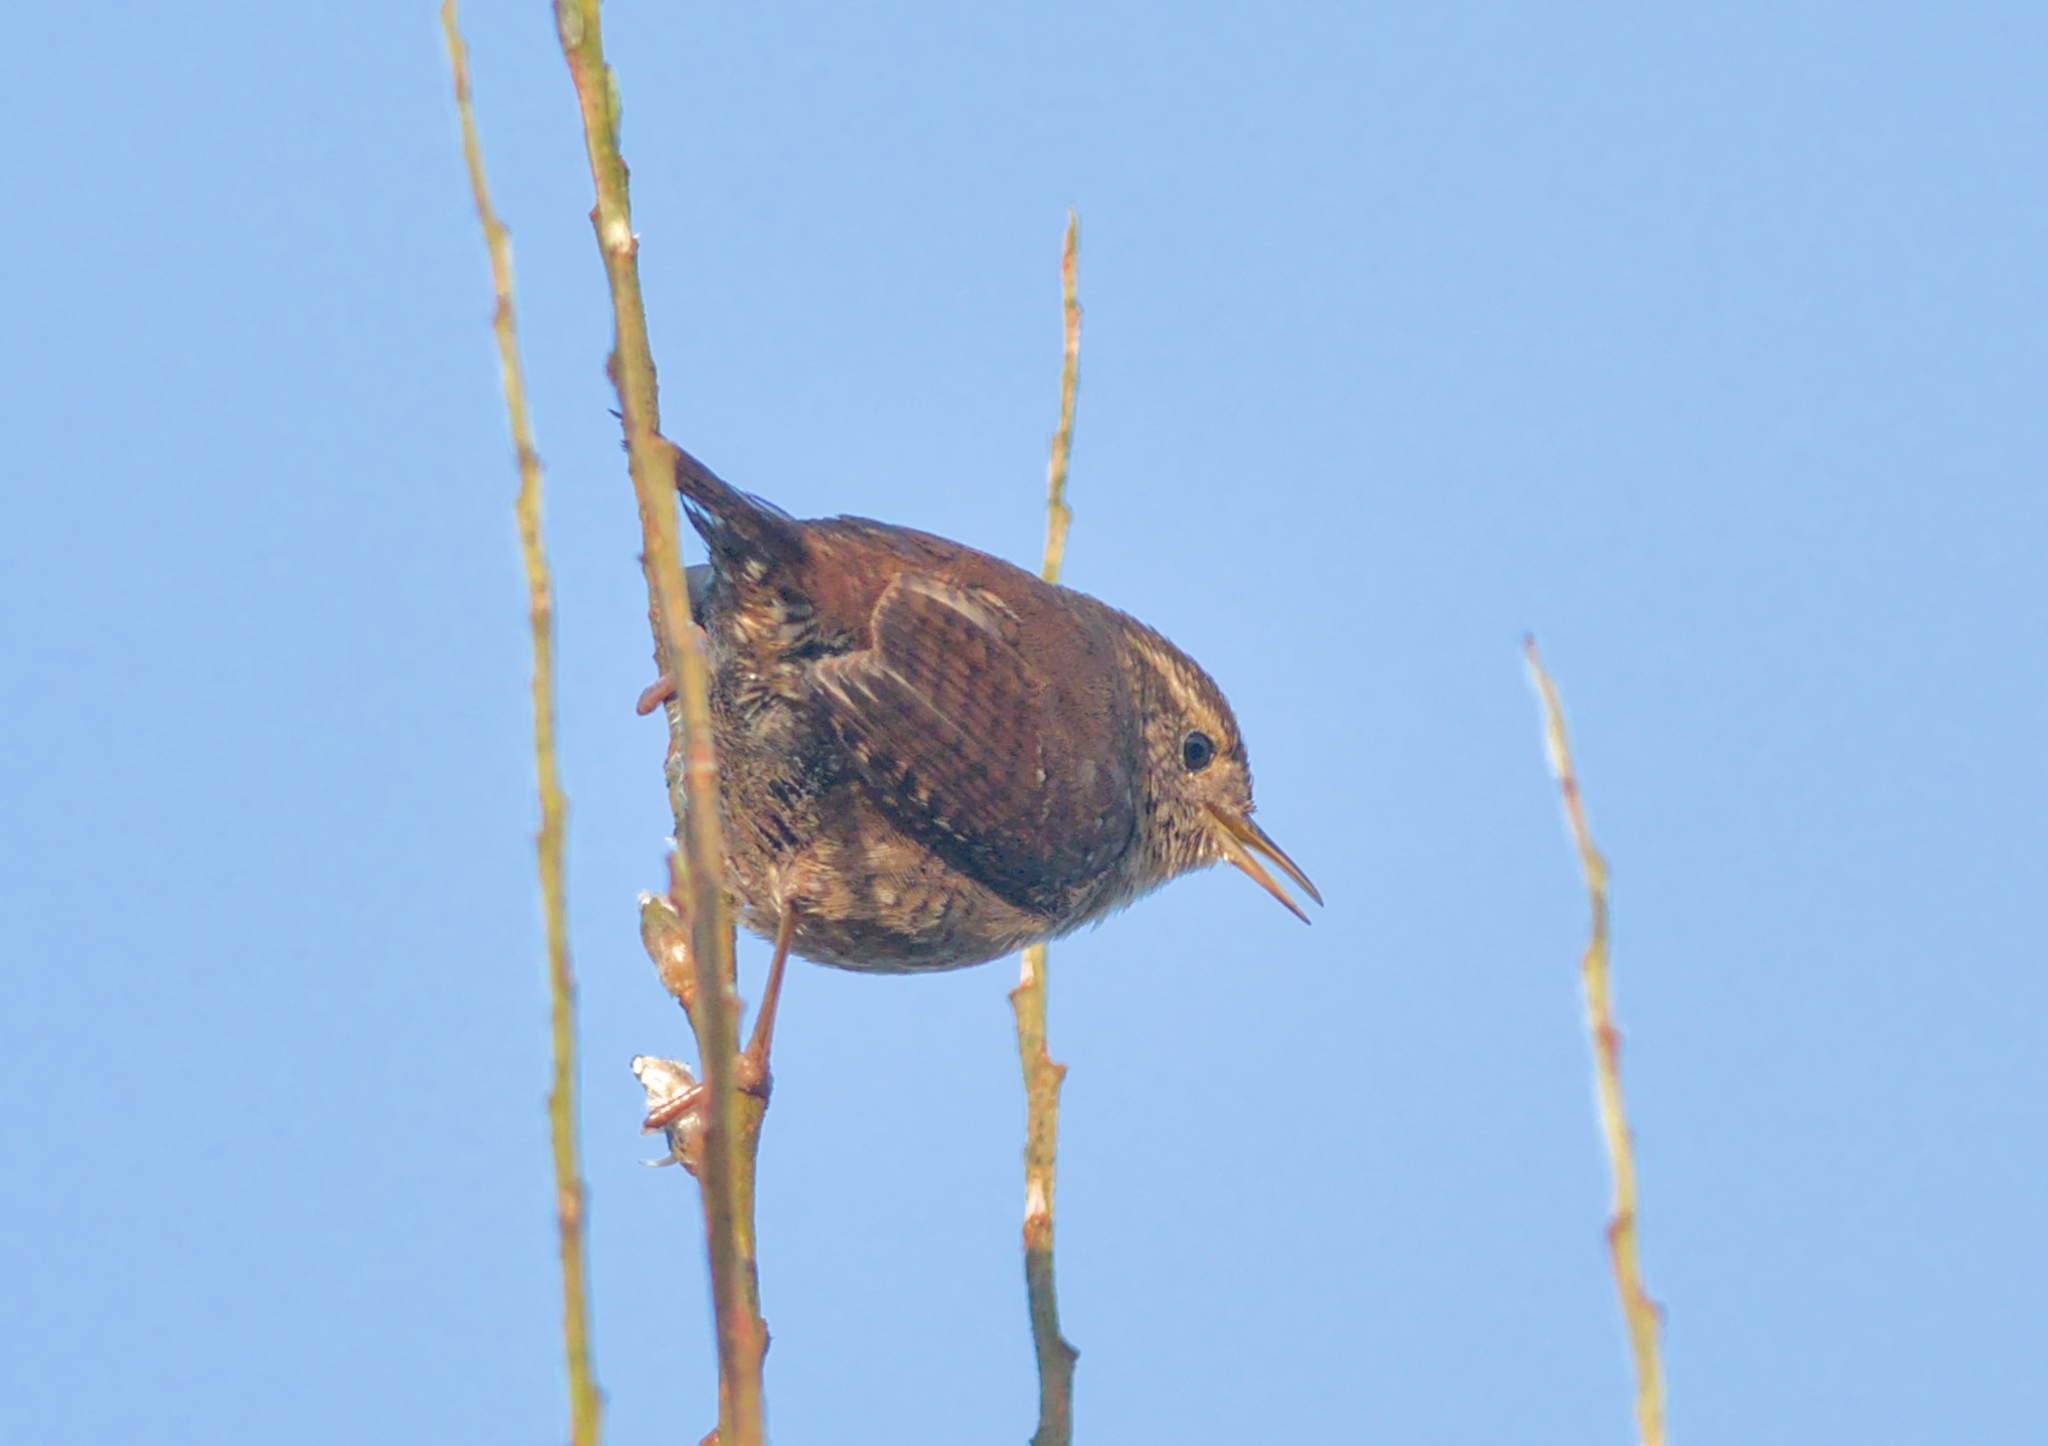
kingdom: Animalia
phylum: Chordata
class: Aves
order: Passeriformes
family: Troglodytidae
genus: Troglodytes
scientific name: Troglodytes troglodytes
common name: Eurasian wren
